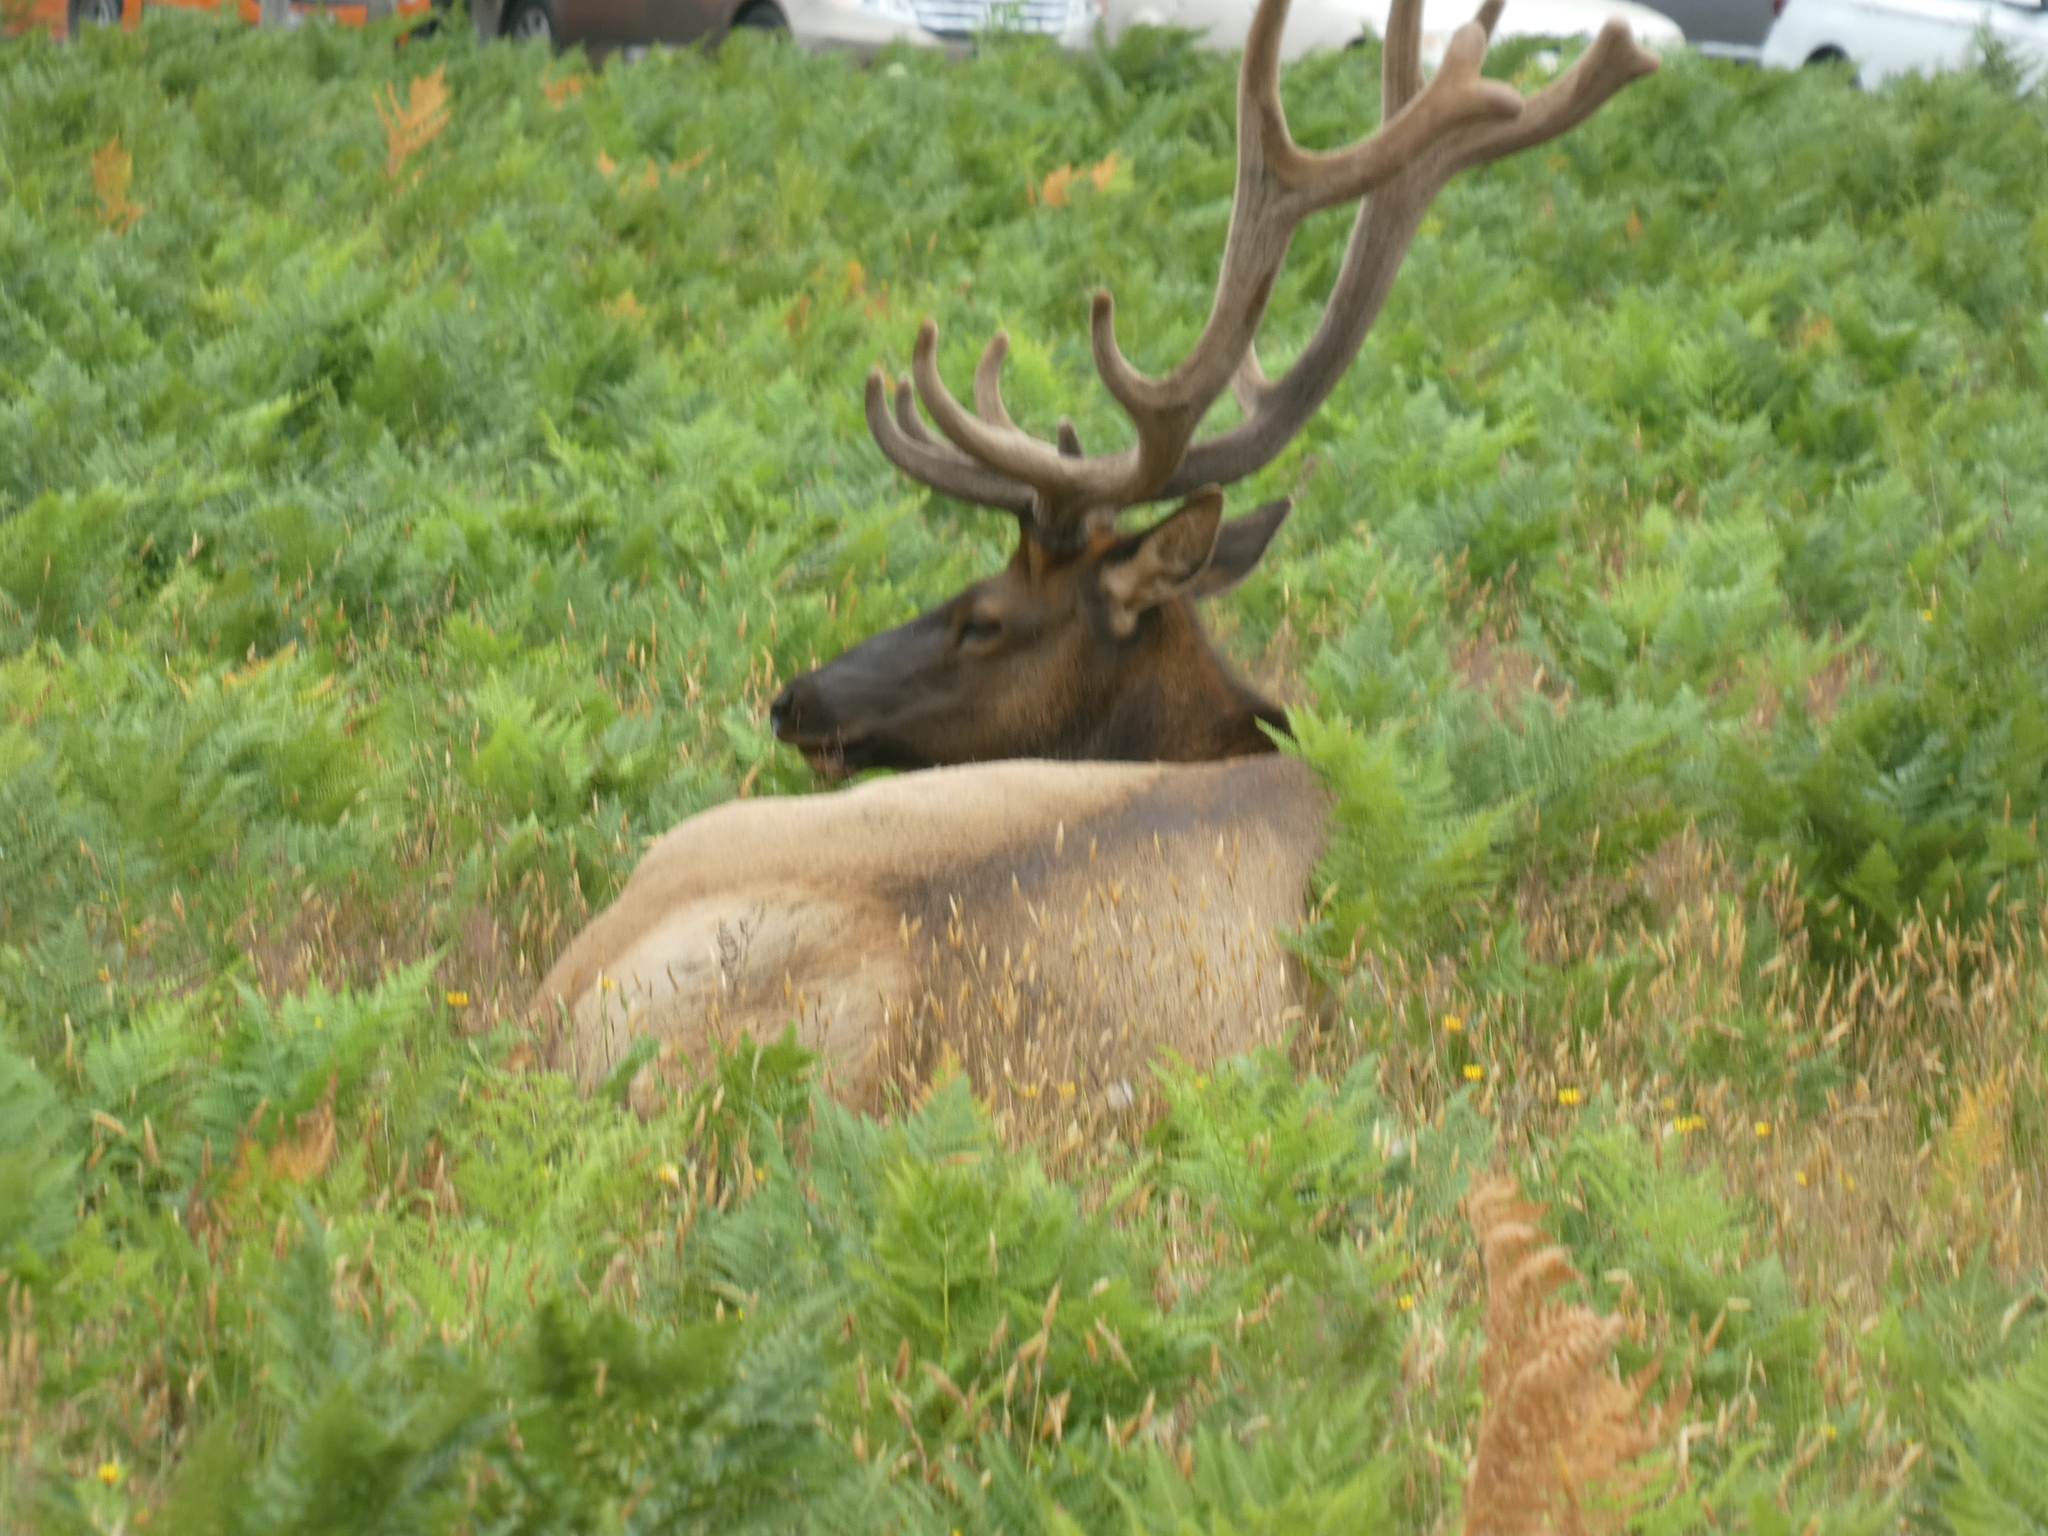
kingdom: Animalia
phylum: Chordata
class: Mammalia
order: Artiodactyla
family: Cervidae
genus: Cervus
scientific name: Cervus elaphus
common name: Red deer
